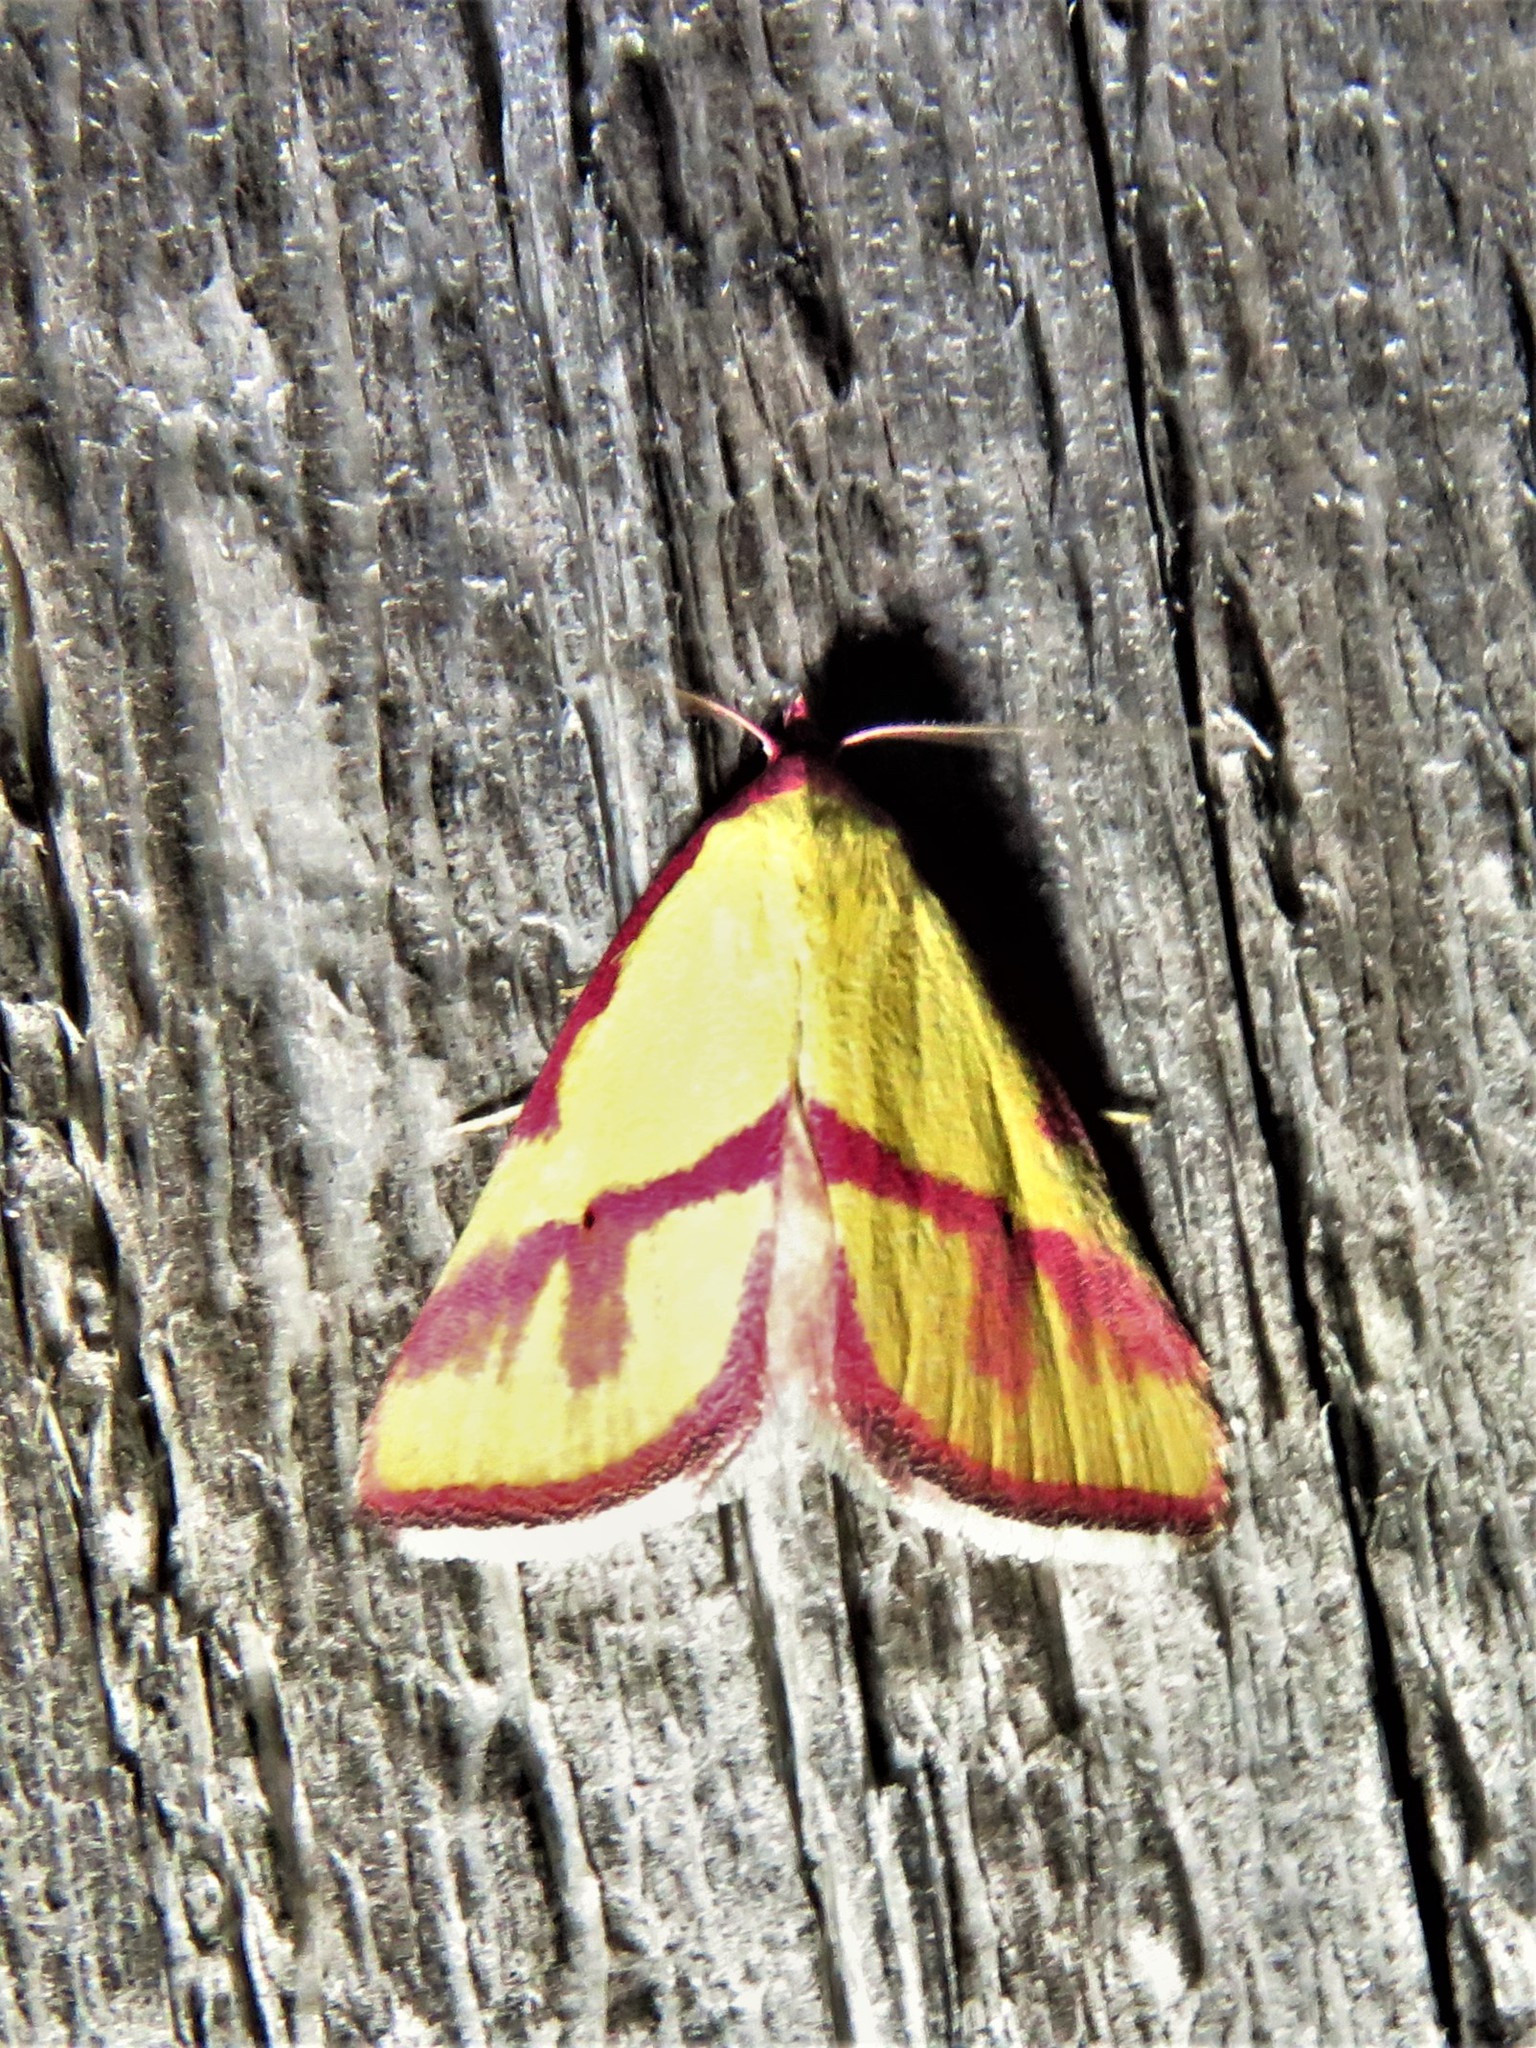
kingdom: Animalia
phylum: Arthropoda
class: Insecta
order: Lepidoptera
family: Erebidae
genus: Phytometra
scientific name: Phytometra ernestinana
